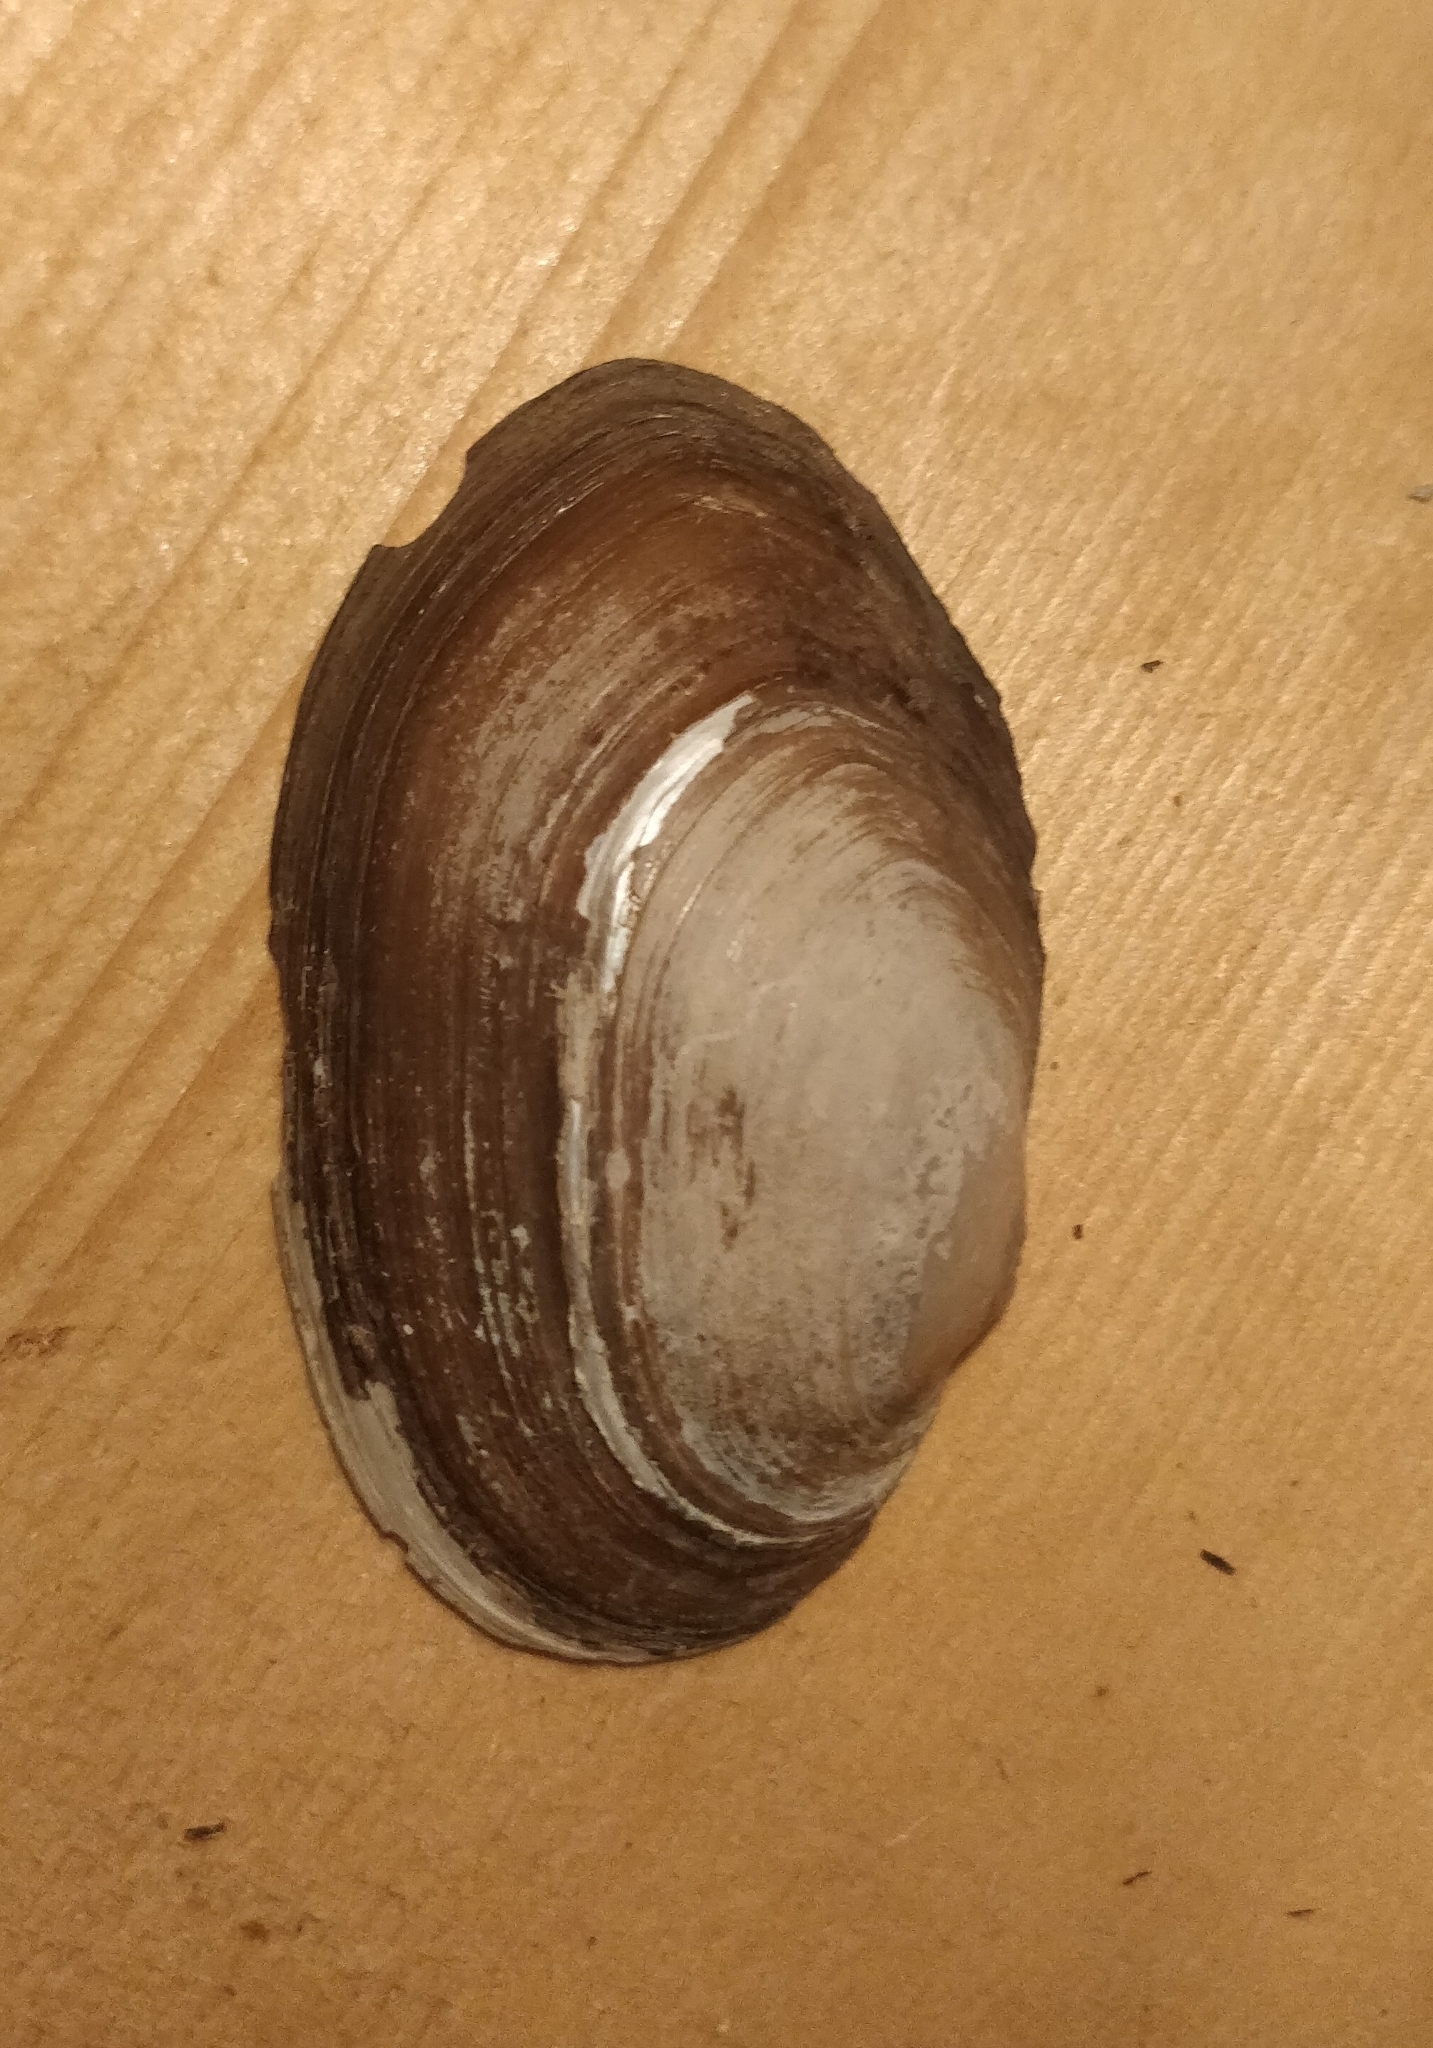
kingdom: Animalia
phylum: Mollusca
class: Bivalvia
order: Unionida
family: Unionidae
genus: Pyganodon
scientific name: Pyganodon grandis
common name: Giant floater
